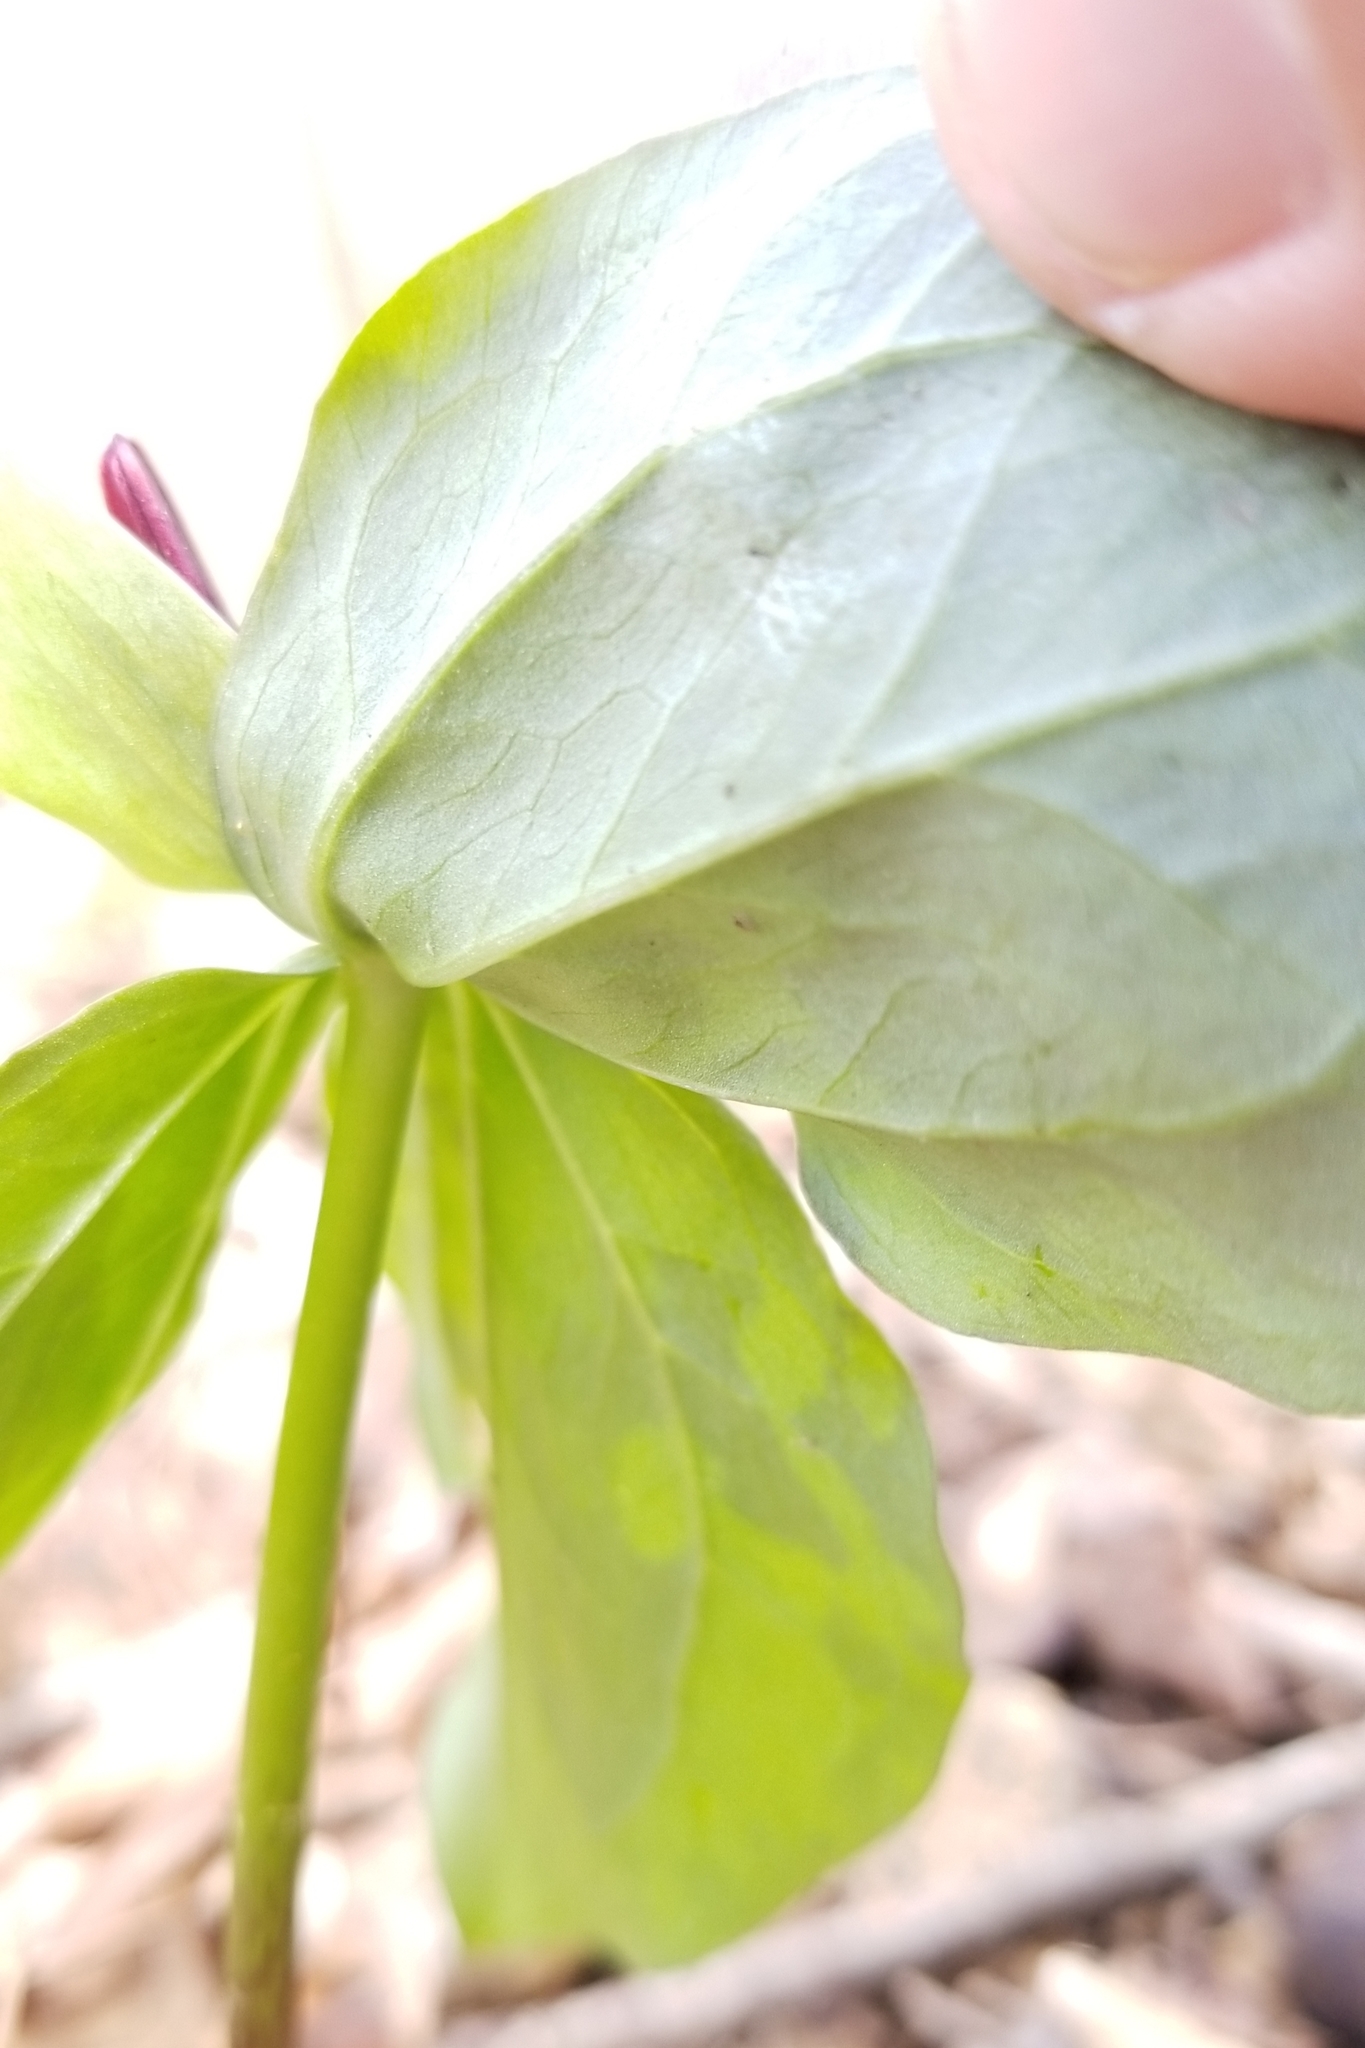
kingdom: Plantae
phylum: Tracheophyta
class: Liliopsida
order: Liliales
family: Melanthiaceae
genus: Trillium
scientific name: Trillium stamineum
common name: Blue ridge wakerobin
